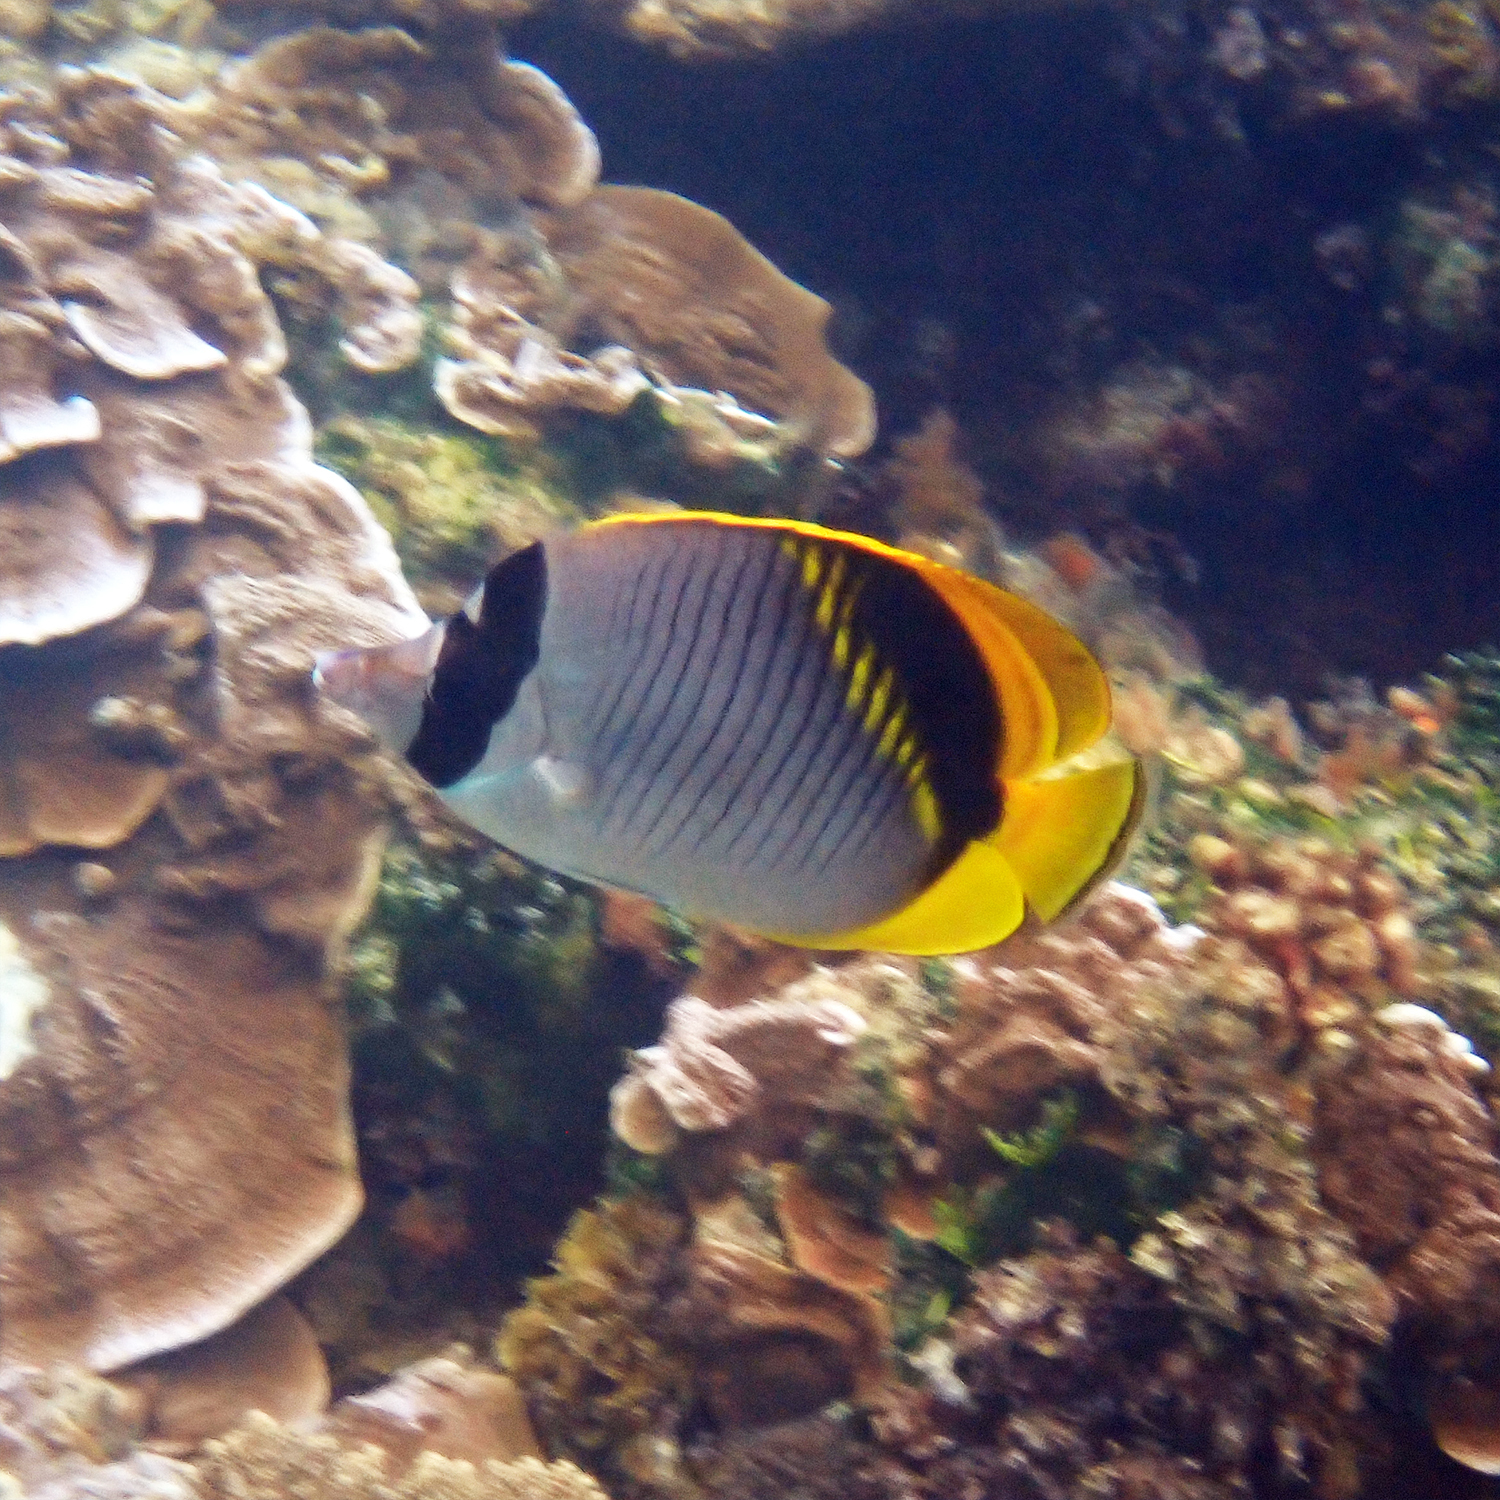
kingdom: Animalia
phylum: Chordata
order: Perciformes
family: Chaetodontidae
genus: Chaetodon
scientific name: Chaetodon lineolatus
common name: Lined butterflyfish
